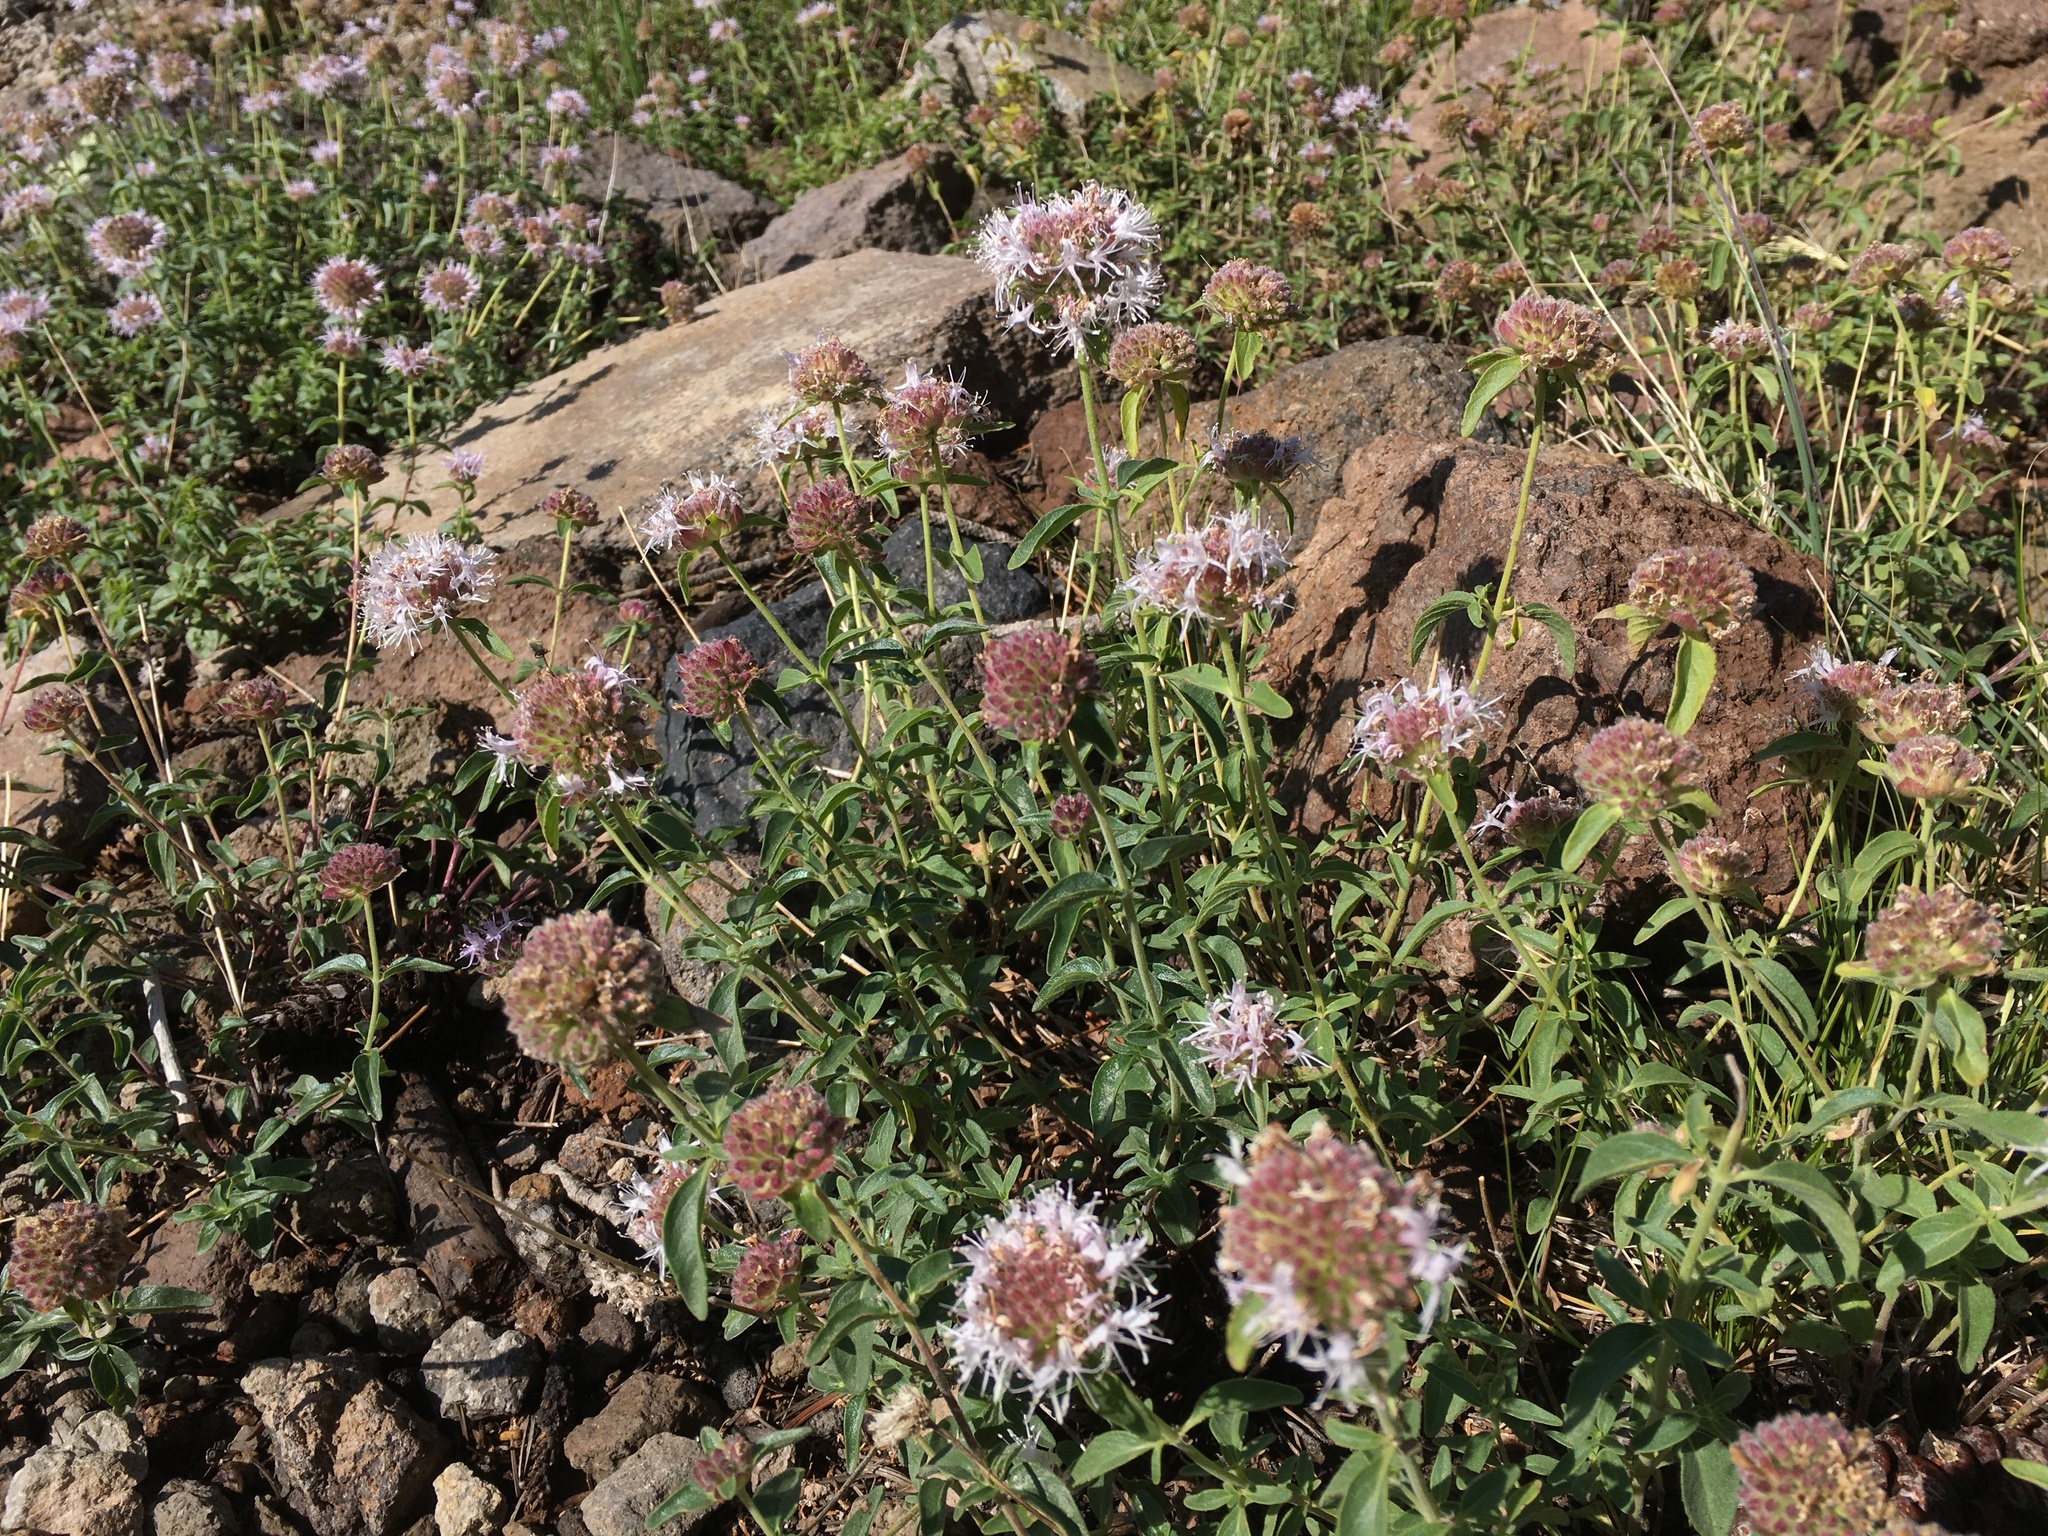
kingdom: Plantae
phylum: Tracheophyta
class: Magnoliopsida
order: Lamiales
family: Lamiaceae
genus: Monardella
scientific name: Monardella odoratissima
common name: Pacific monardella
